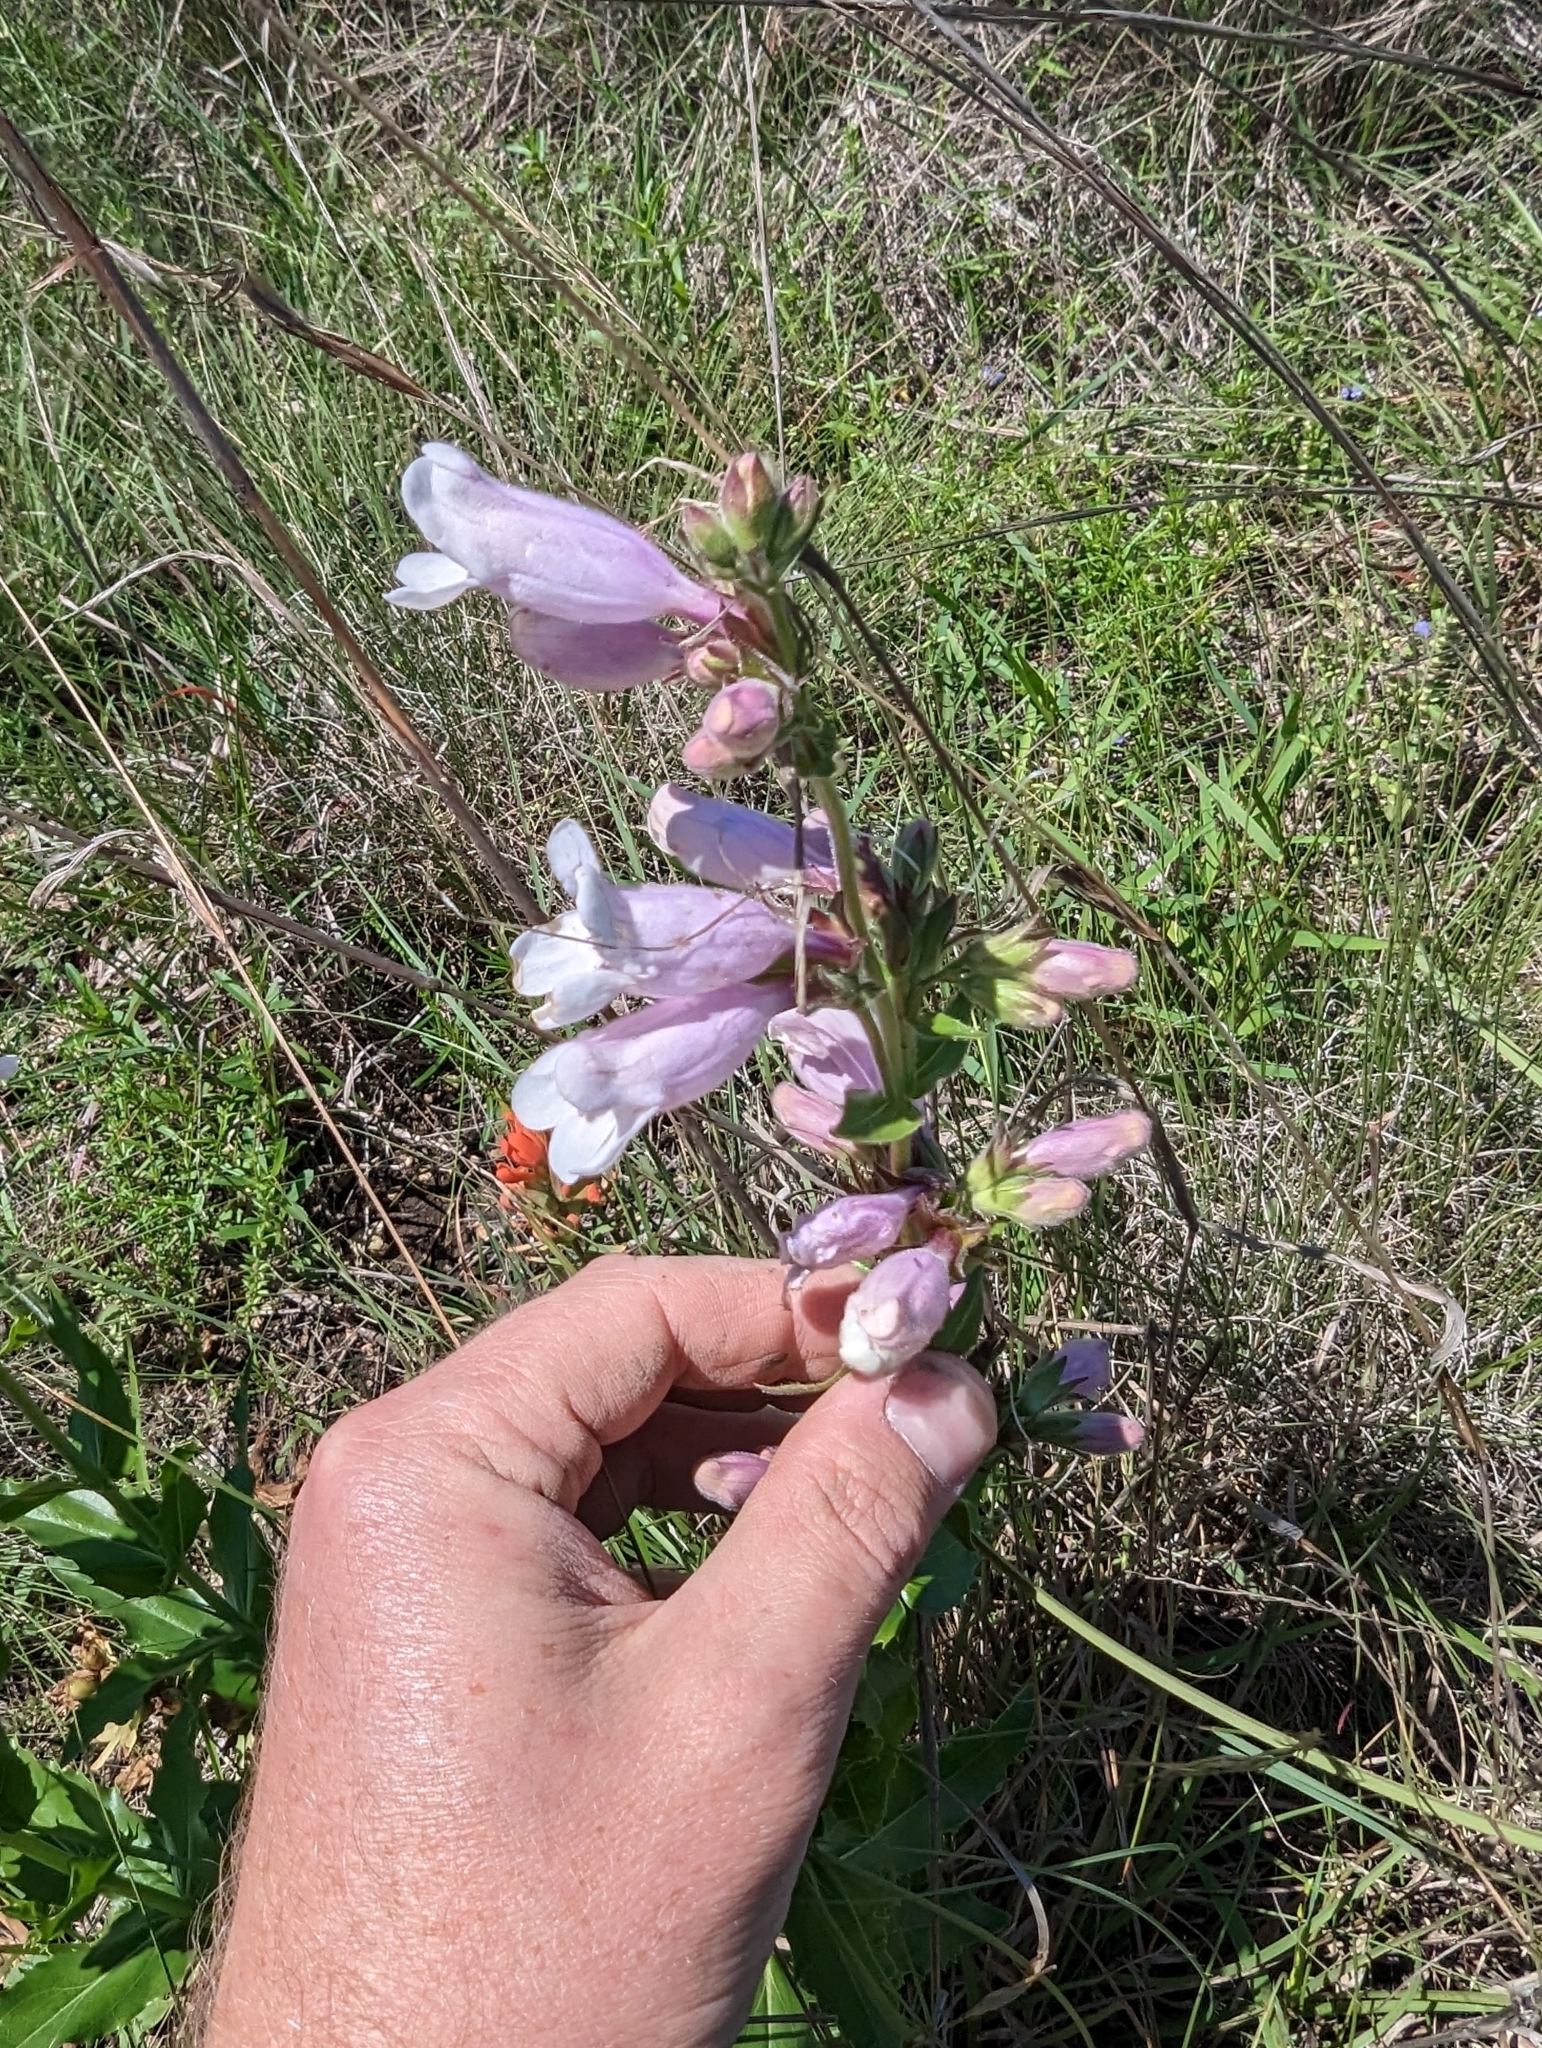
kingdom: Plantae
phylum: Tracheophyta
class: Magnoliopsida
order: Lamiales
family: Plantaginaceae
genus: Penstemon
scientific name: Penstemon cobaea
